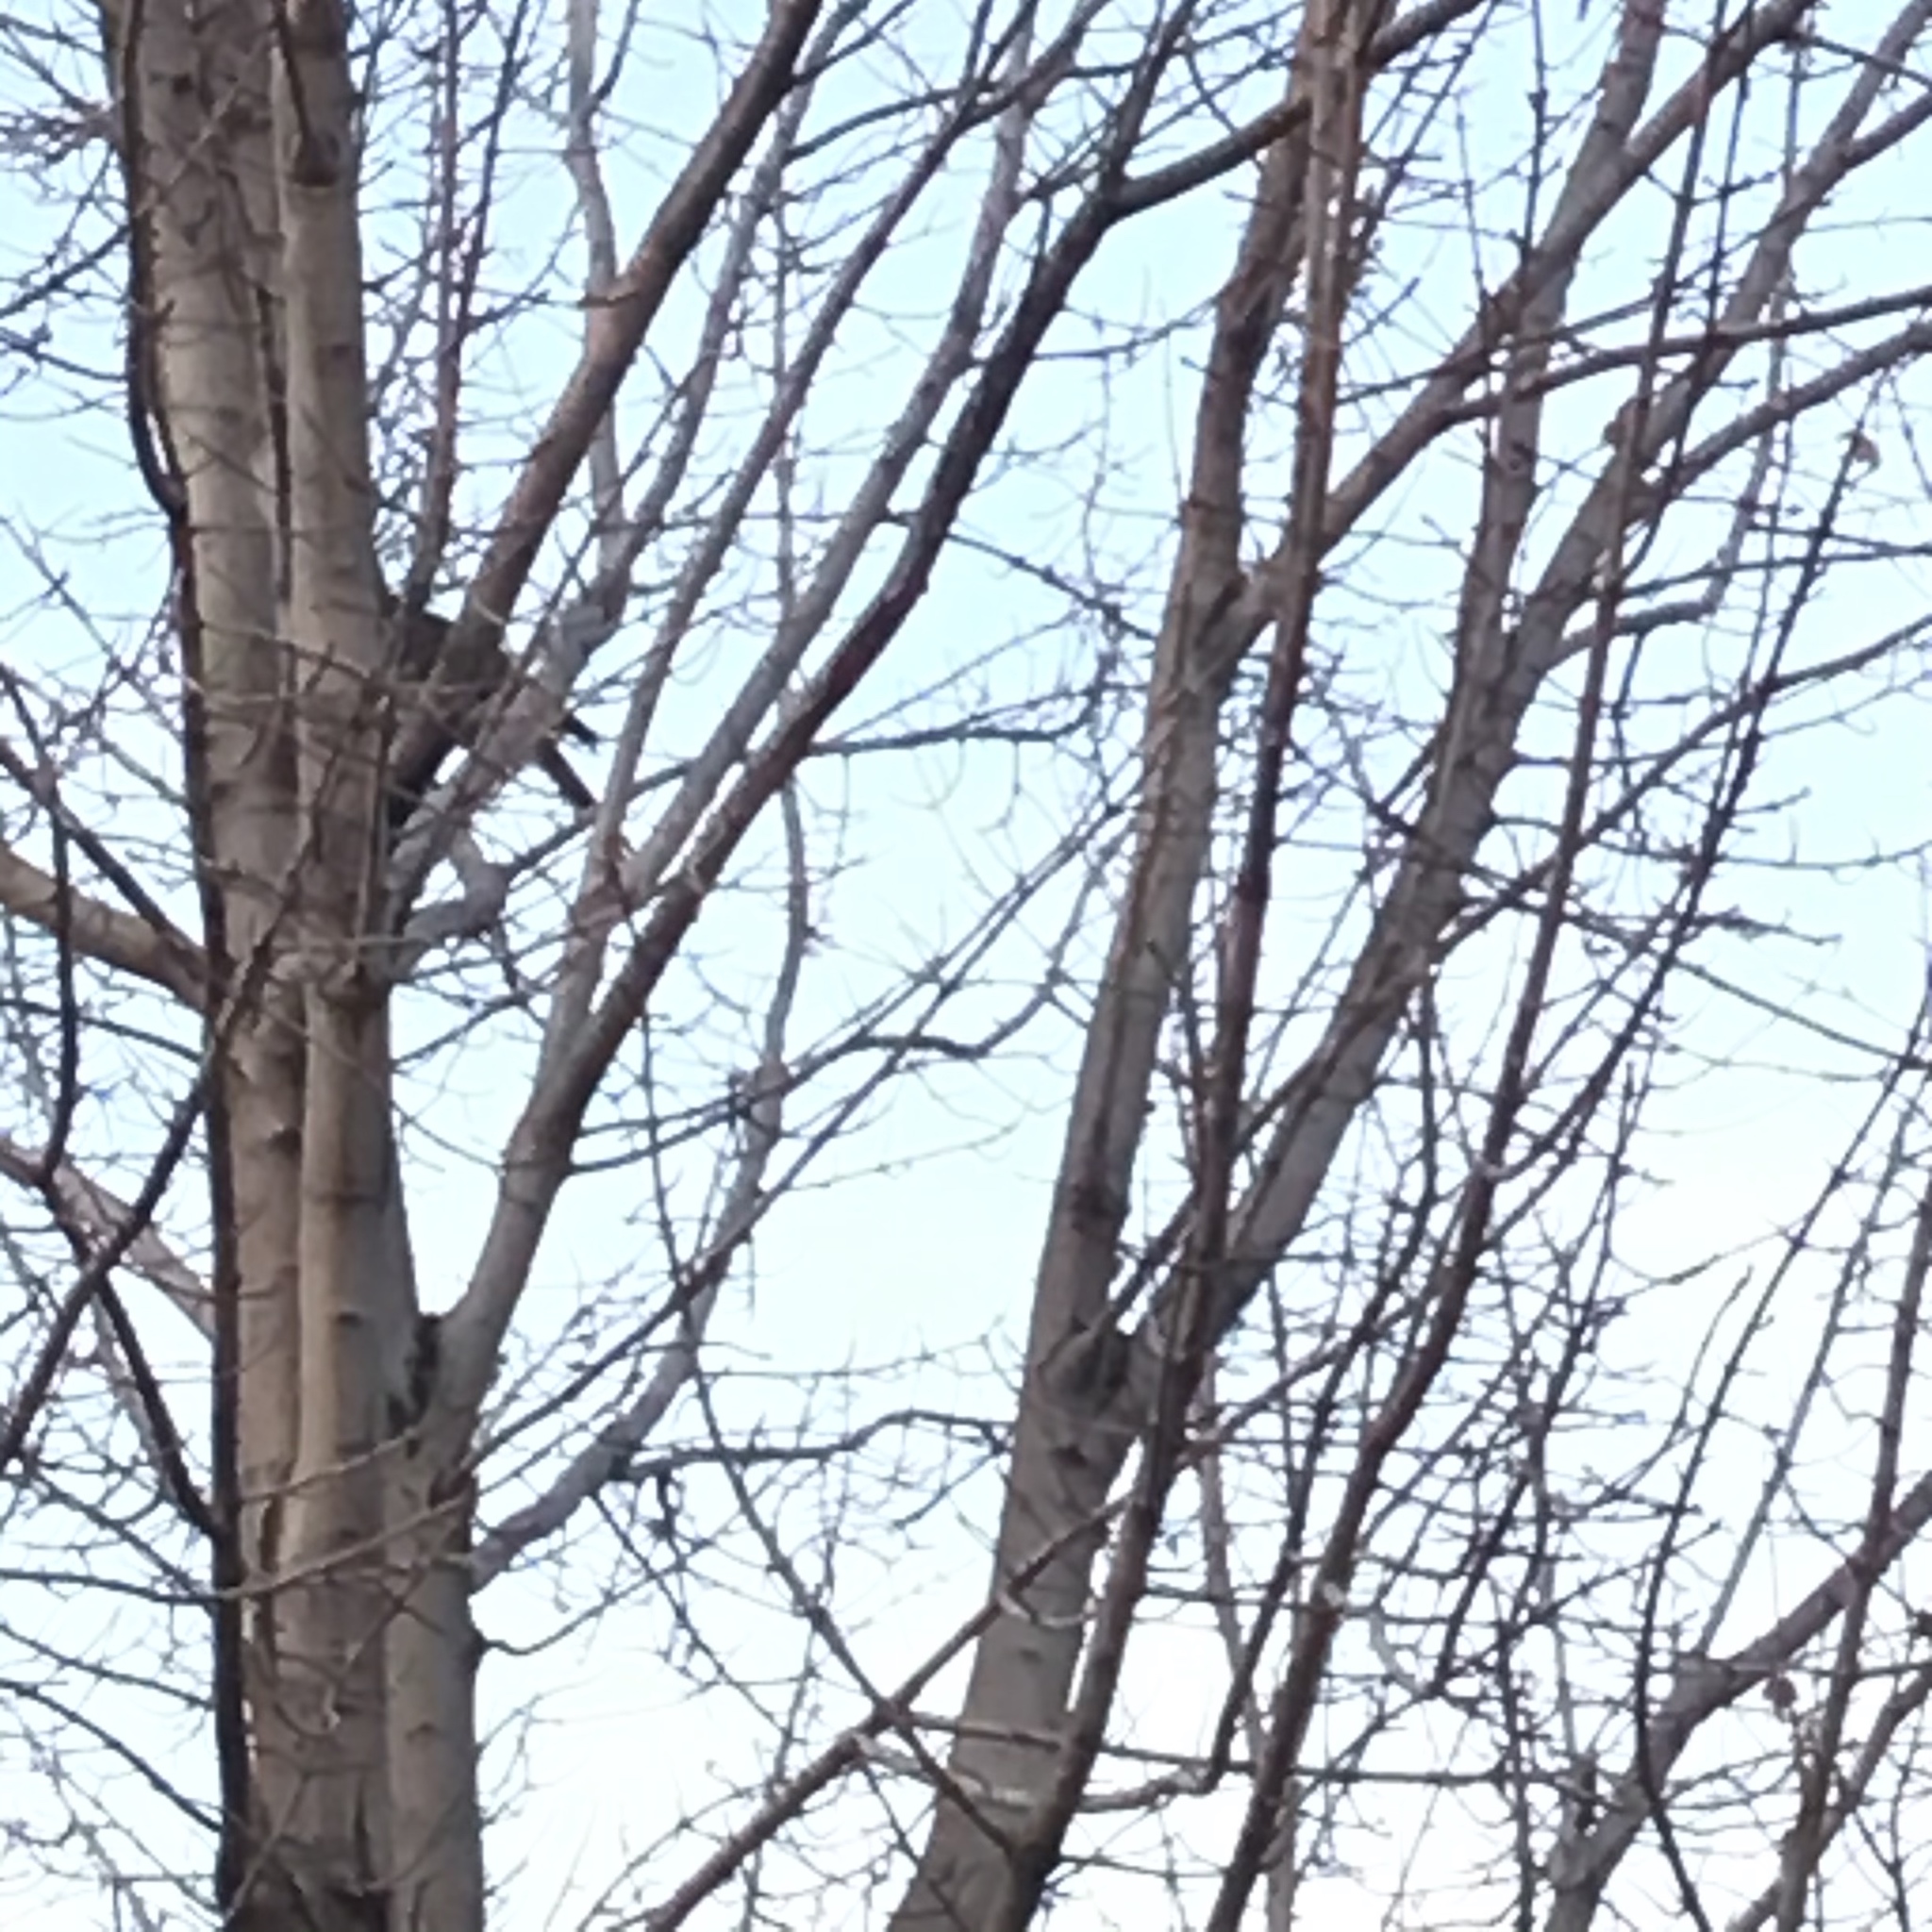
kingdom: Animalia
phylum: Chordata
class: Aves
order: Accipitriformes
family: Accipitridae
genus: Accipiter
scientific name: Accipiter
